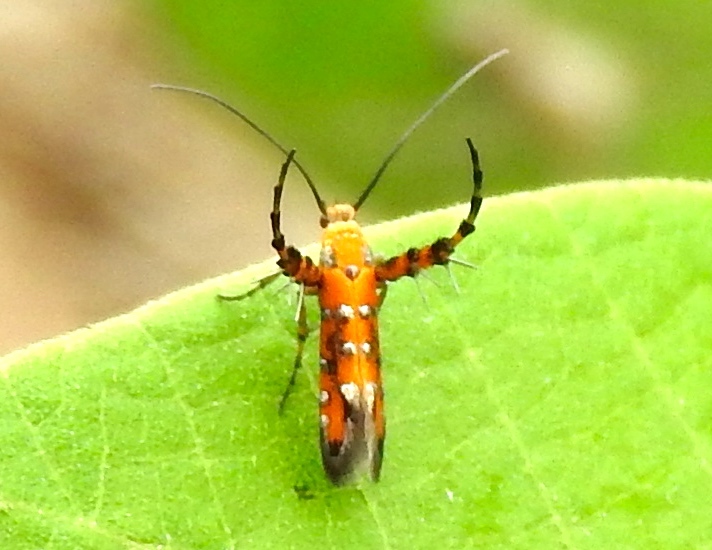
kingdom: Animalia
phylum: Arthropoda
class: Insecta
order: Lepidoptera
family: Heliodinidae
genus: Heliodines
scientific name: Heliodines
